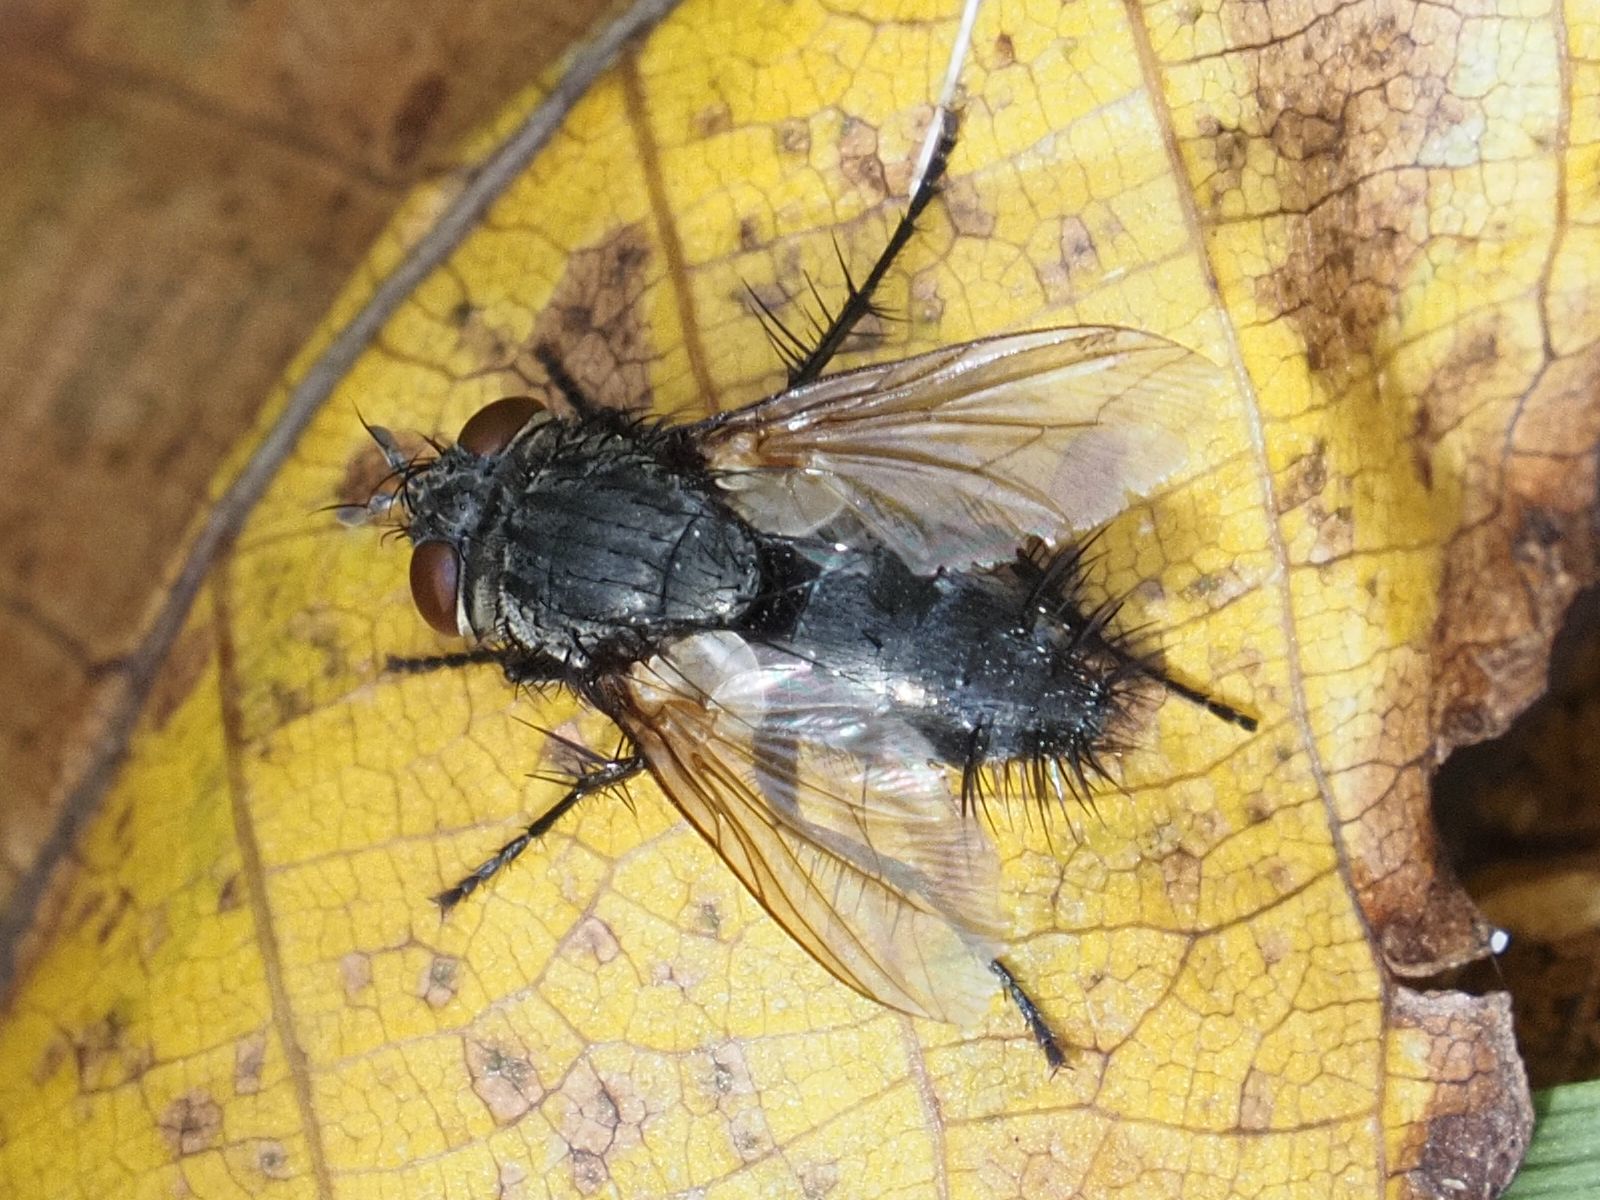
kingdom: Animalia
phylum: Arthropoda
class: Insecta
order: Diptera
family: Tachinidae
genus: Voria
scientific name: Voria ruralis
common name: Parasitic fly
